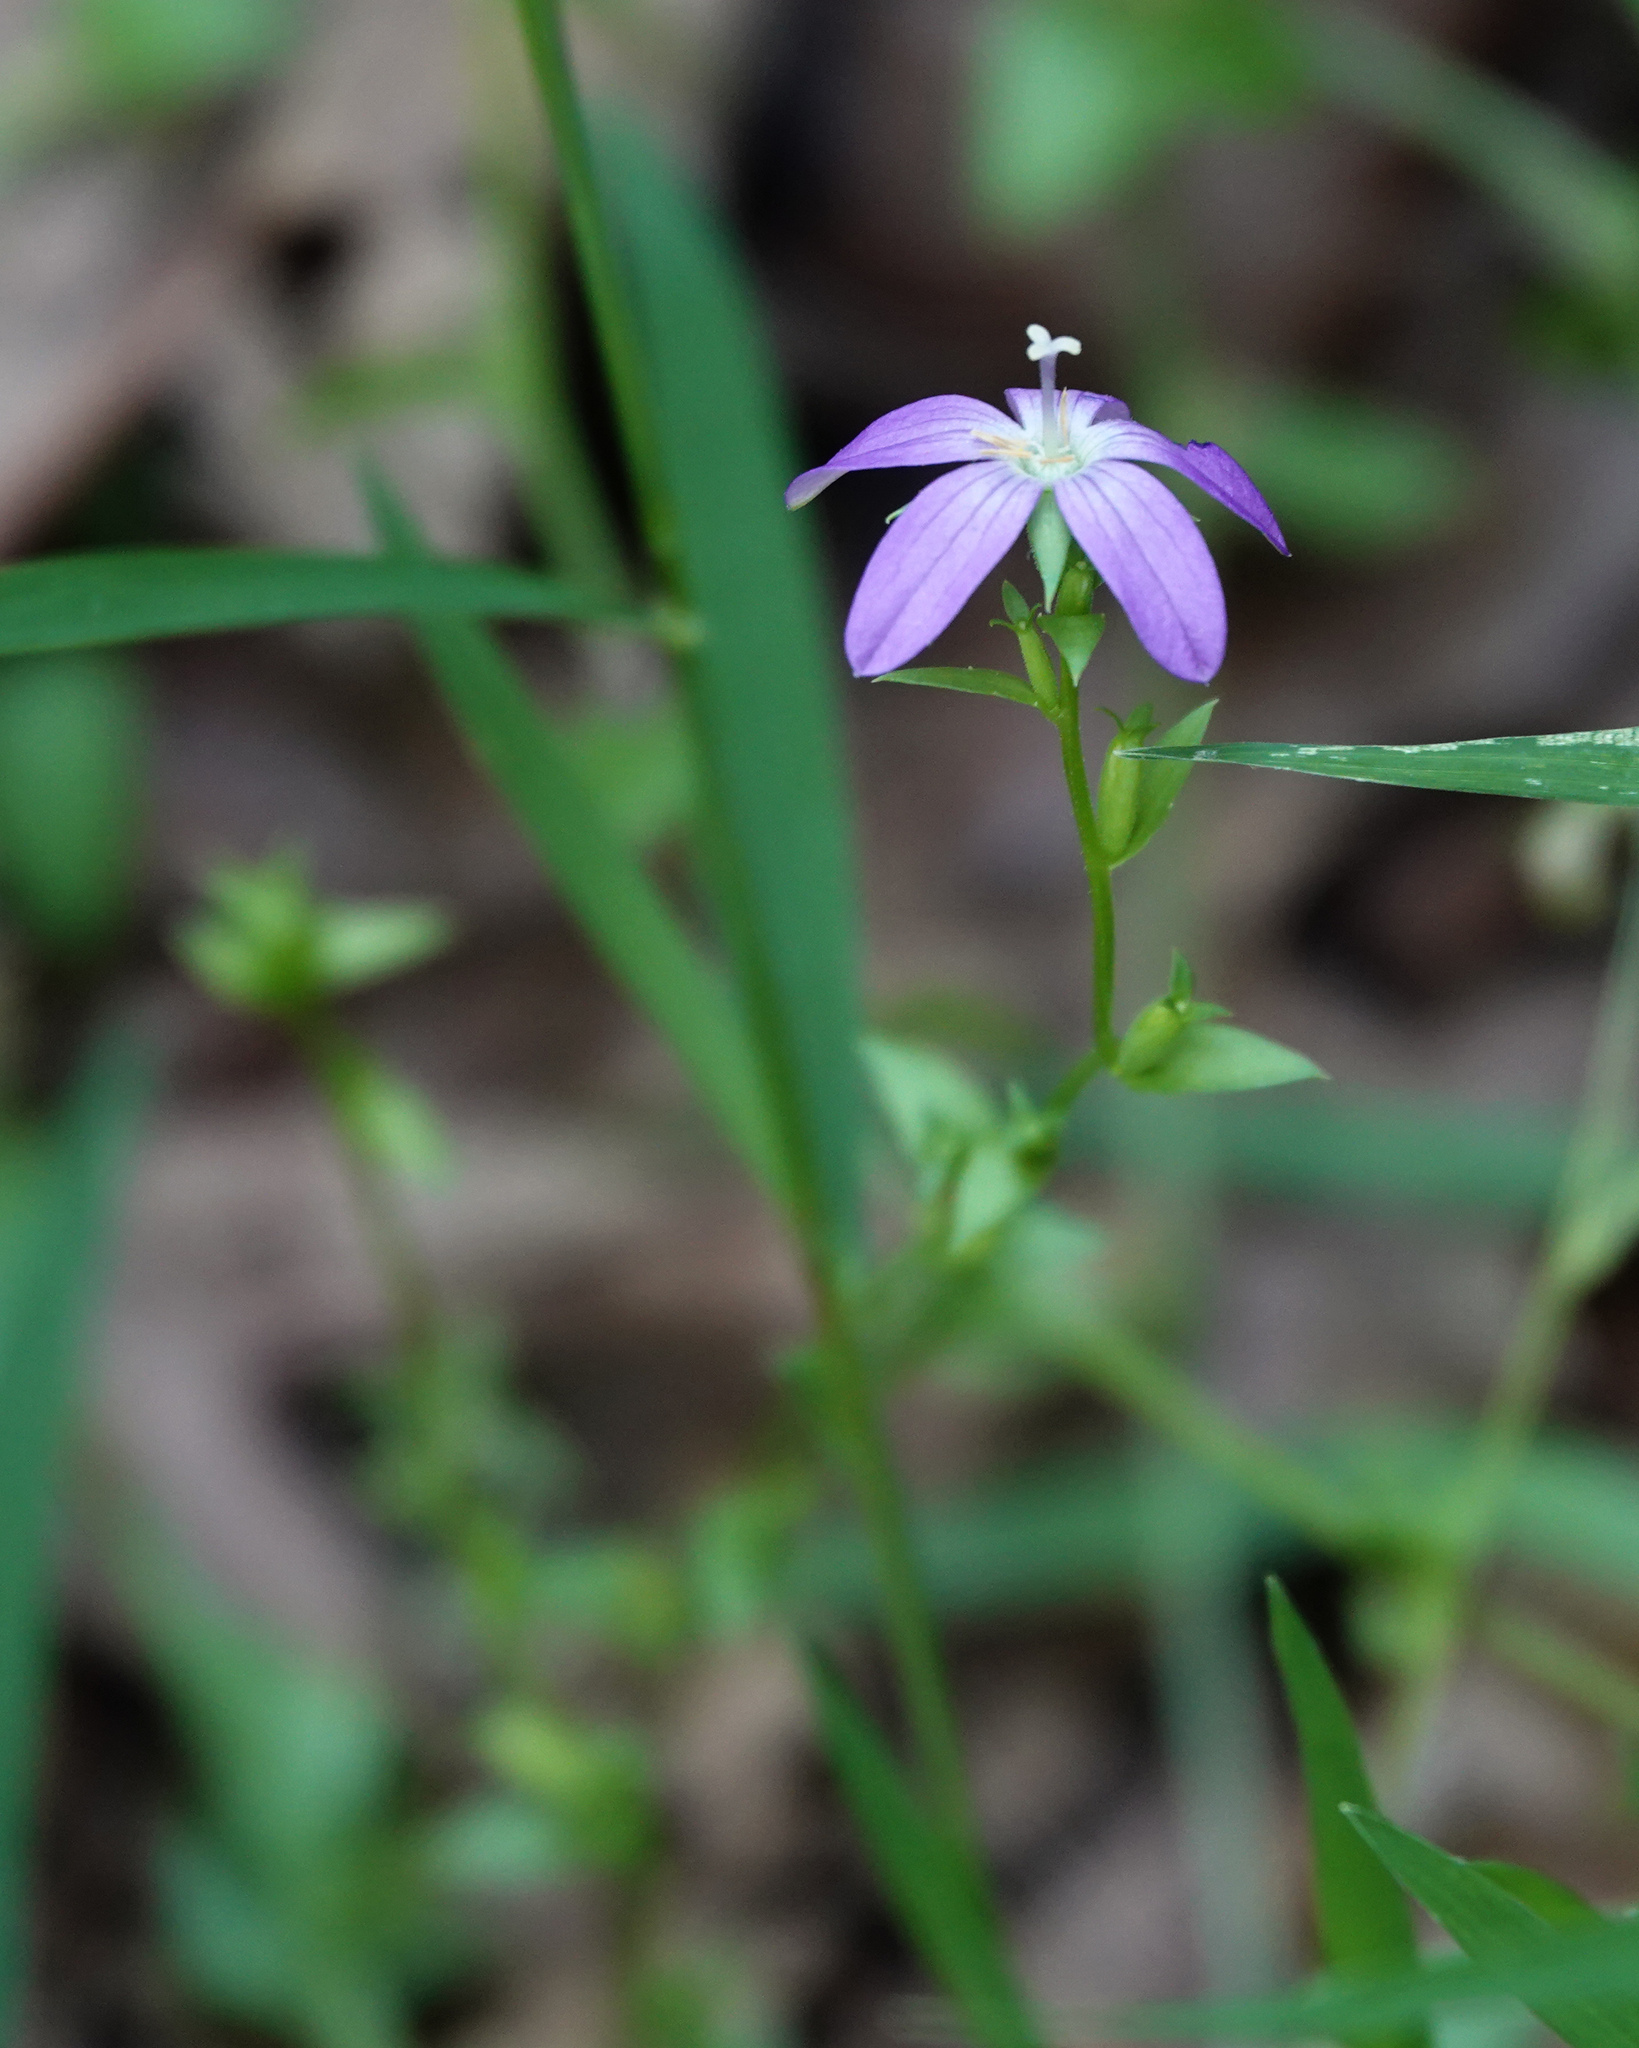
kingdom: Plantae
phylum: Tracheophyta
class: Magnoliopsida
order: Asterales
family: Campanulaceae
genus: Triodanis
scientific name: Triodanis biflora
